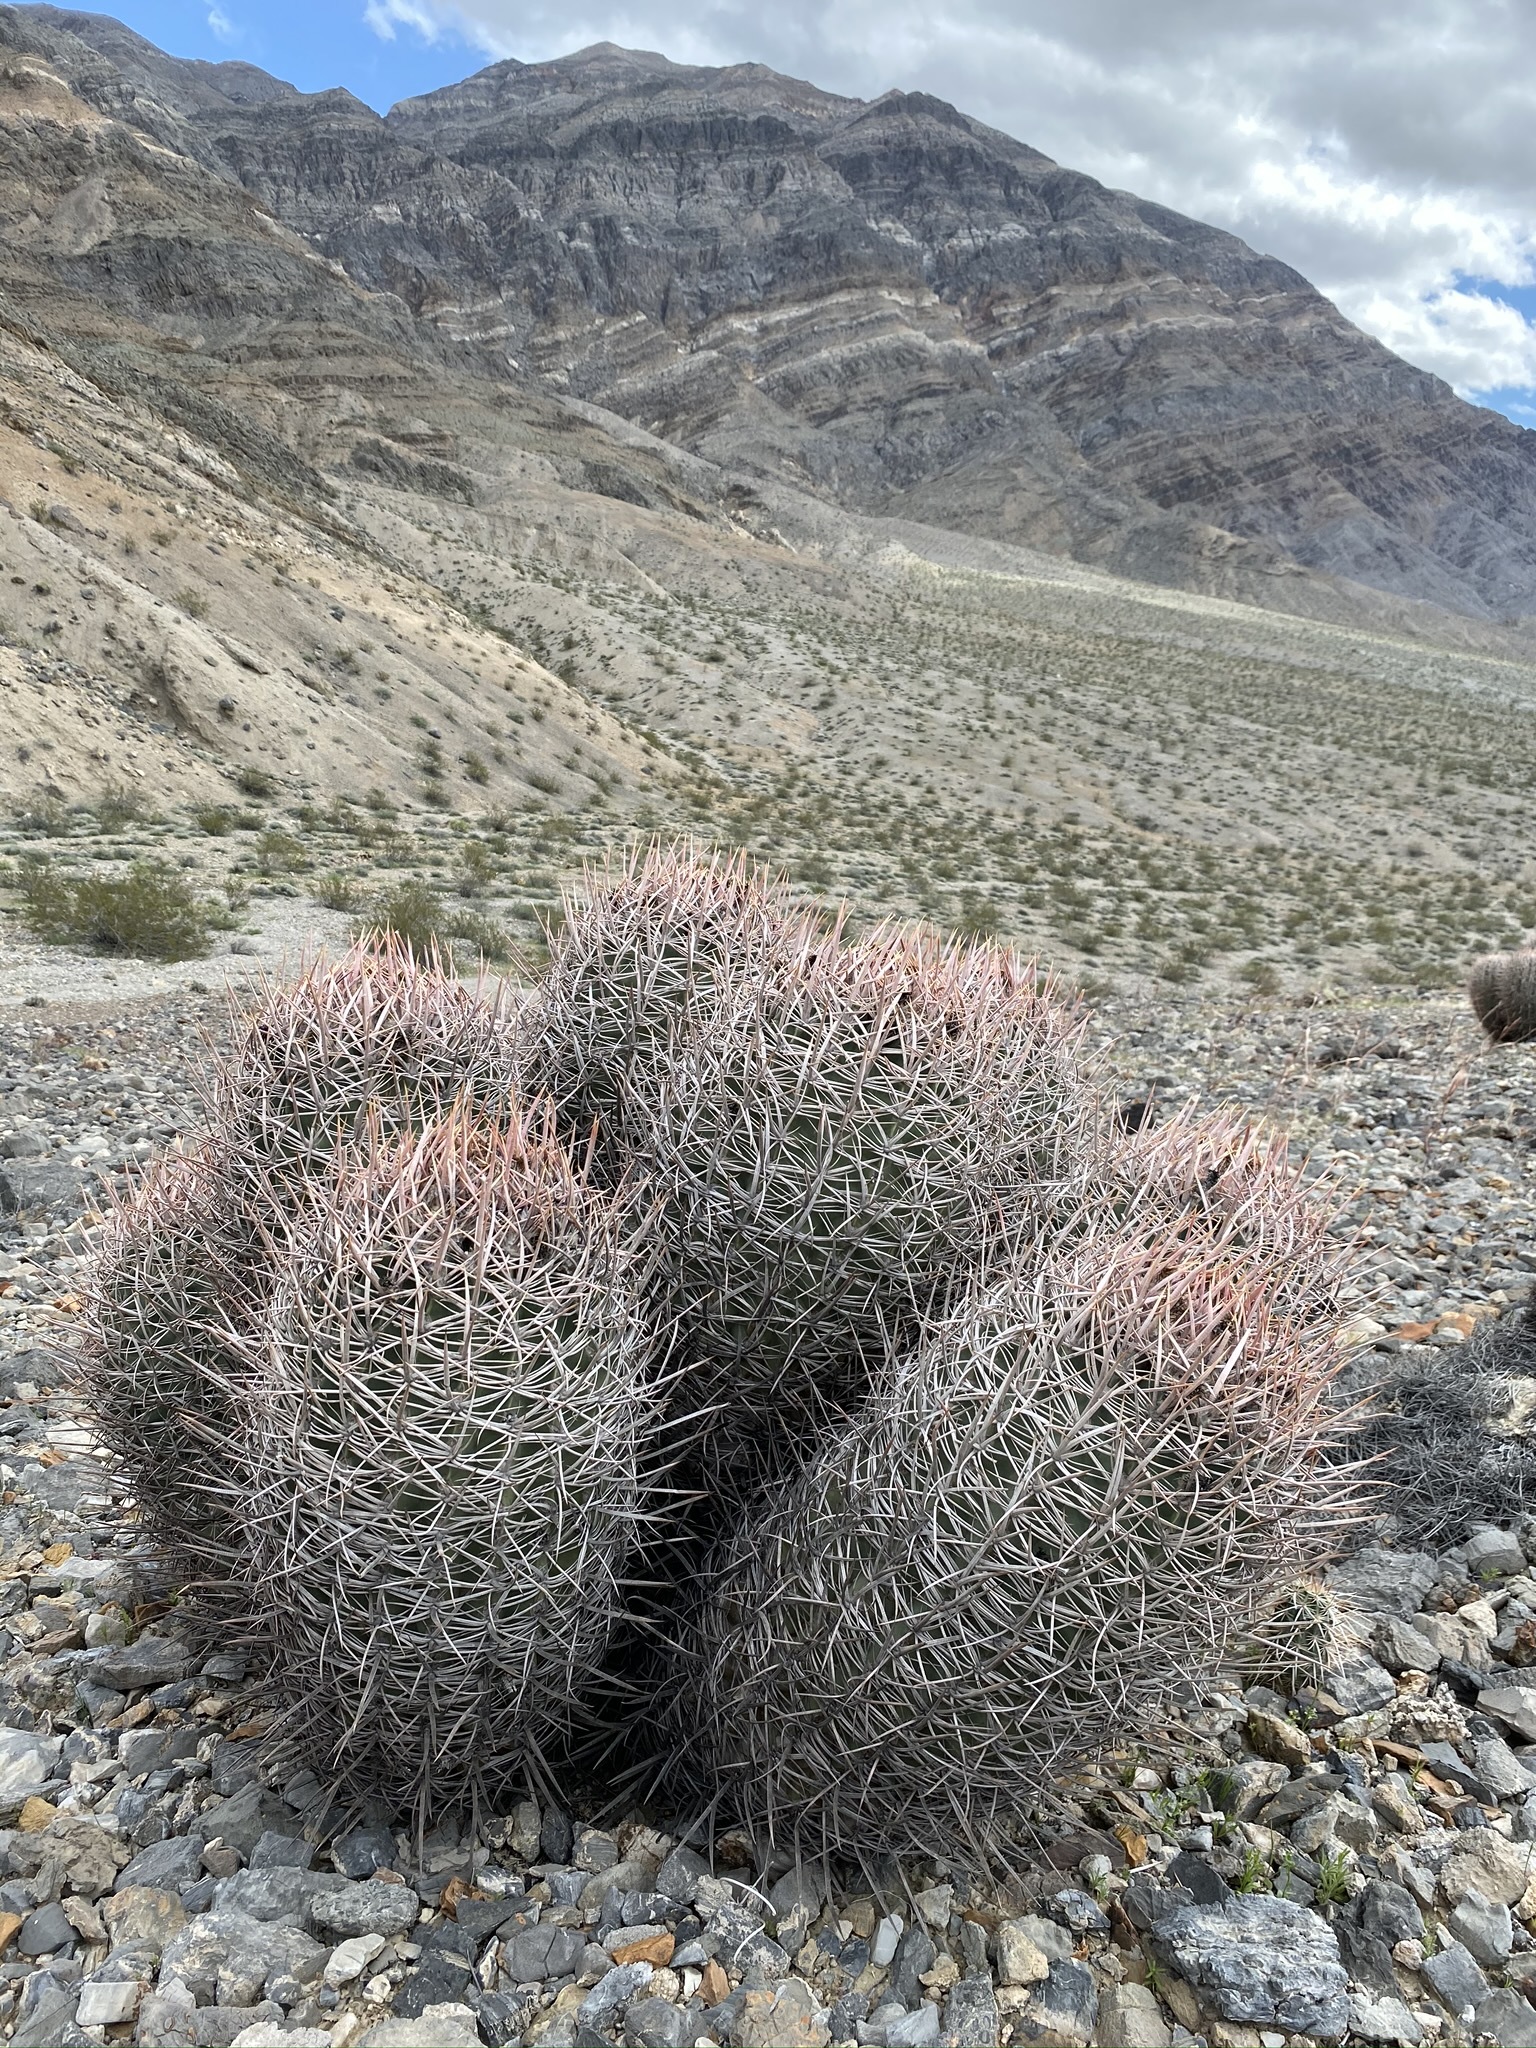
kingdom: Plantae
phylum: Tracheophyta
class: Magnoliopsida
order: Caryophyllales
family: Cactaceae
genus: Echinocactus
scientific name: Echinocactus polycephalus
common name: Cottontop cactus
